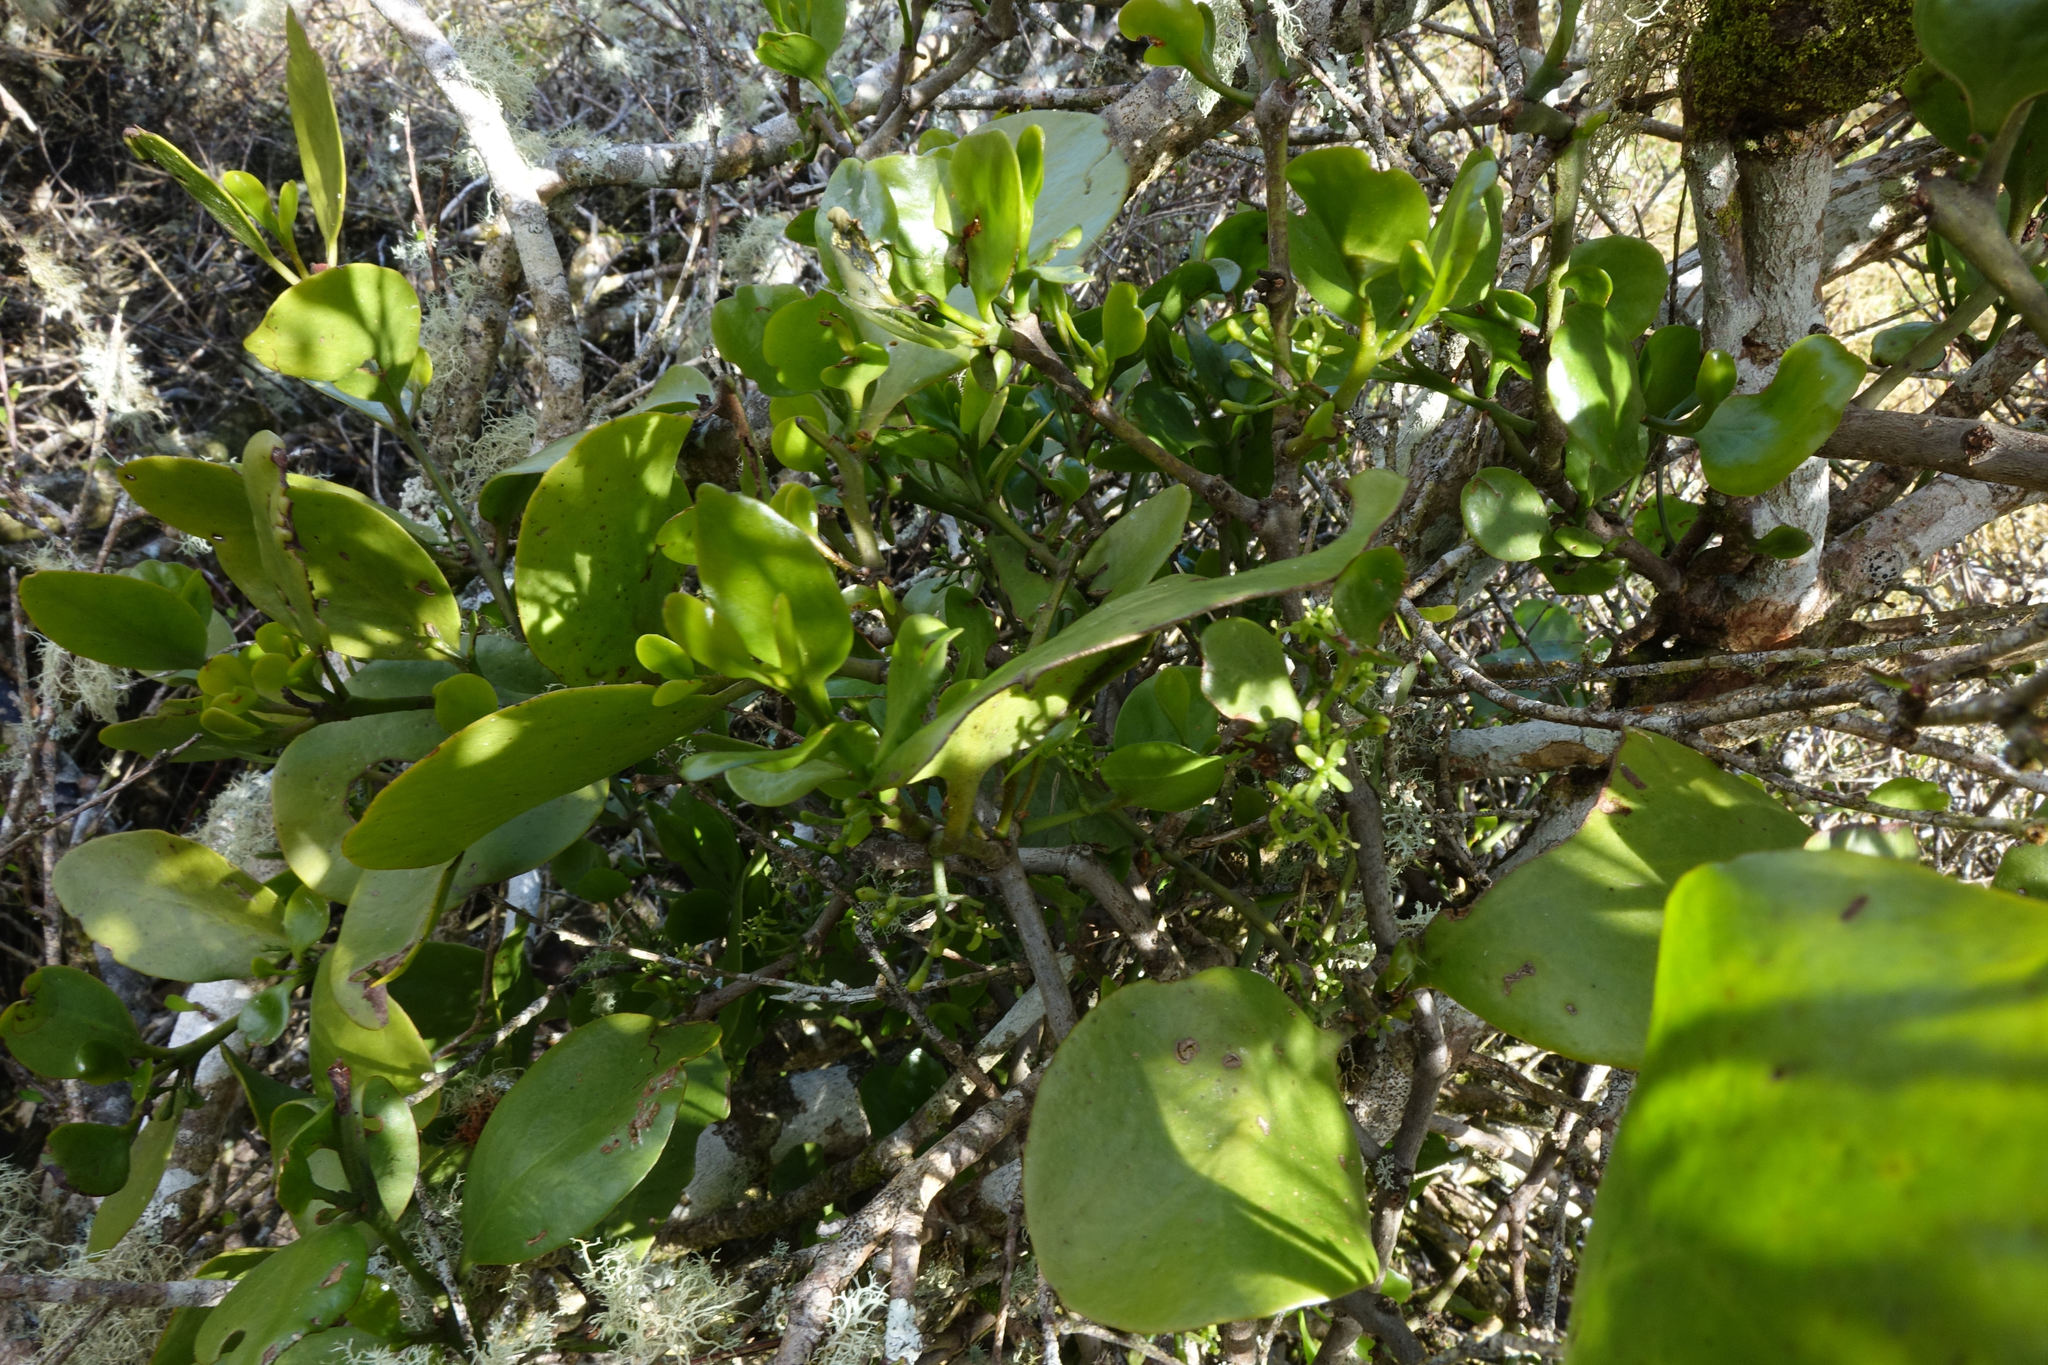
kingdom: Plantae
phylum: Tracheophyta
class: Magnoliopsida
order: Santalales
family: Loranthaceae
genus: Ileostylus
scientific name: Ileostylus micranthus
